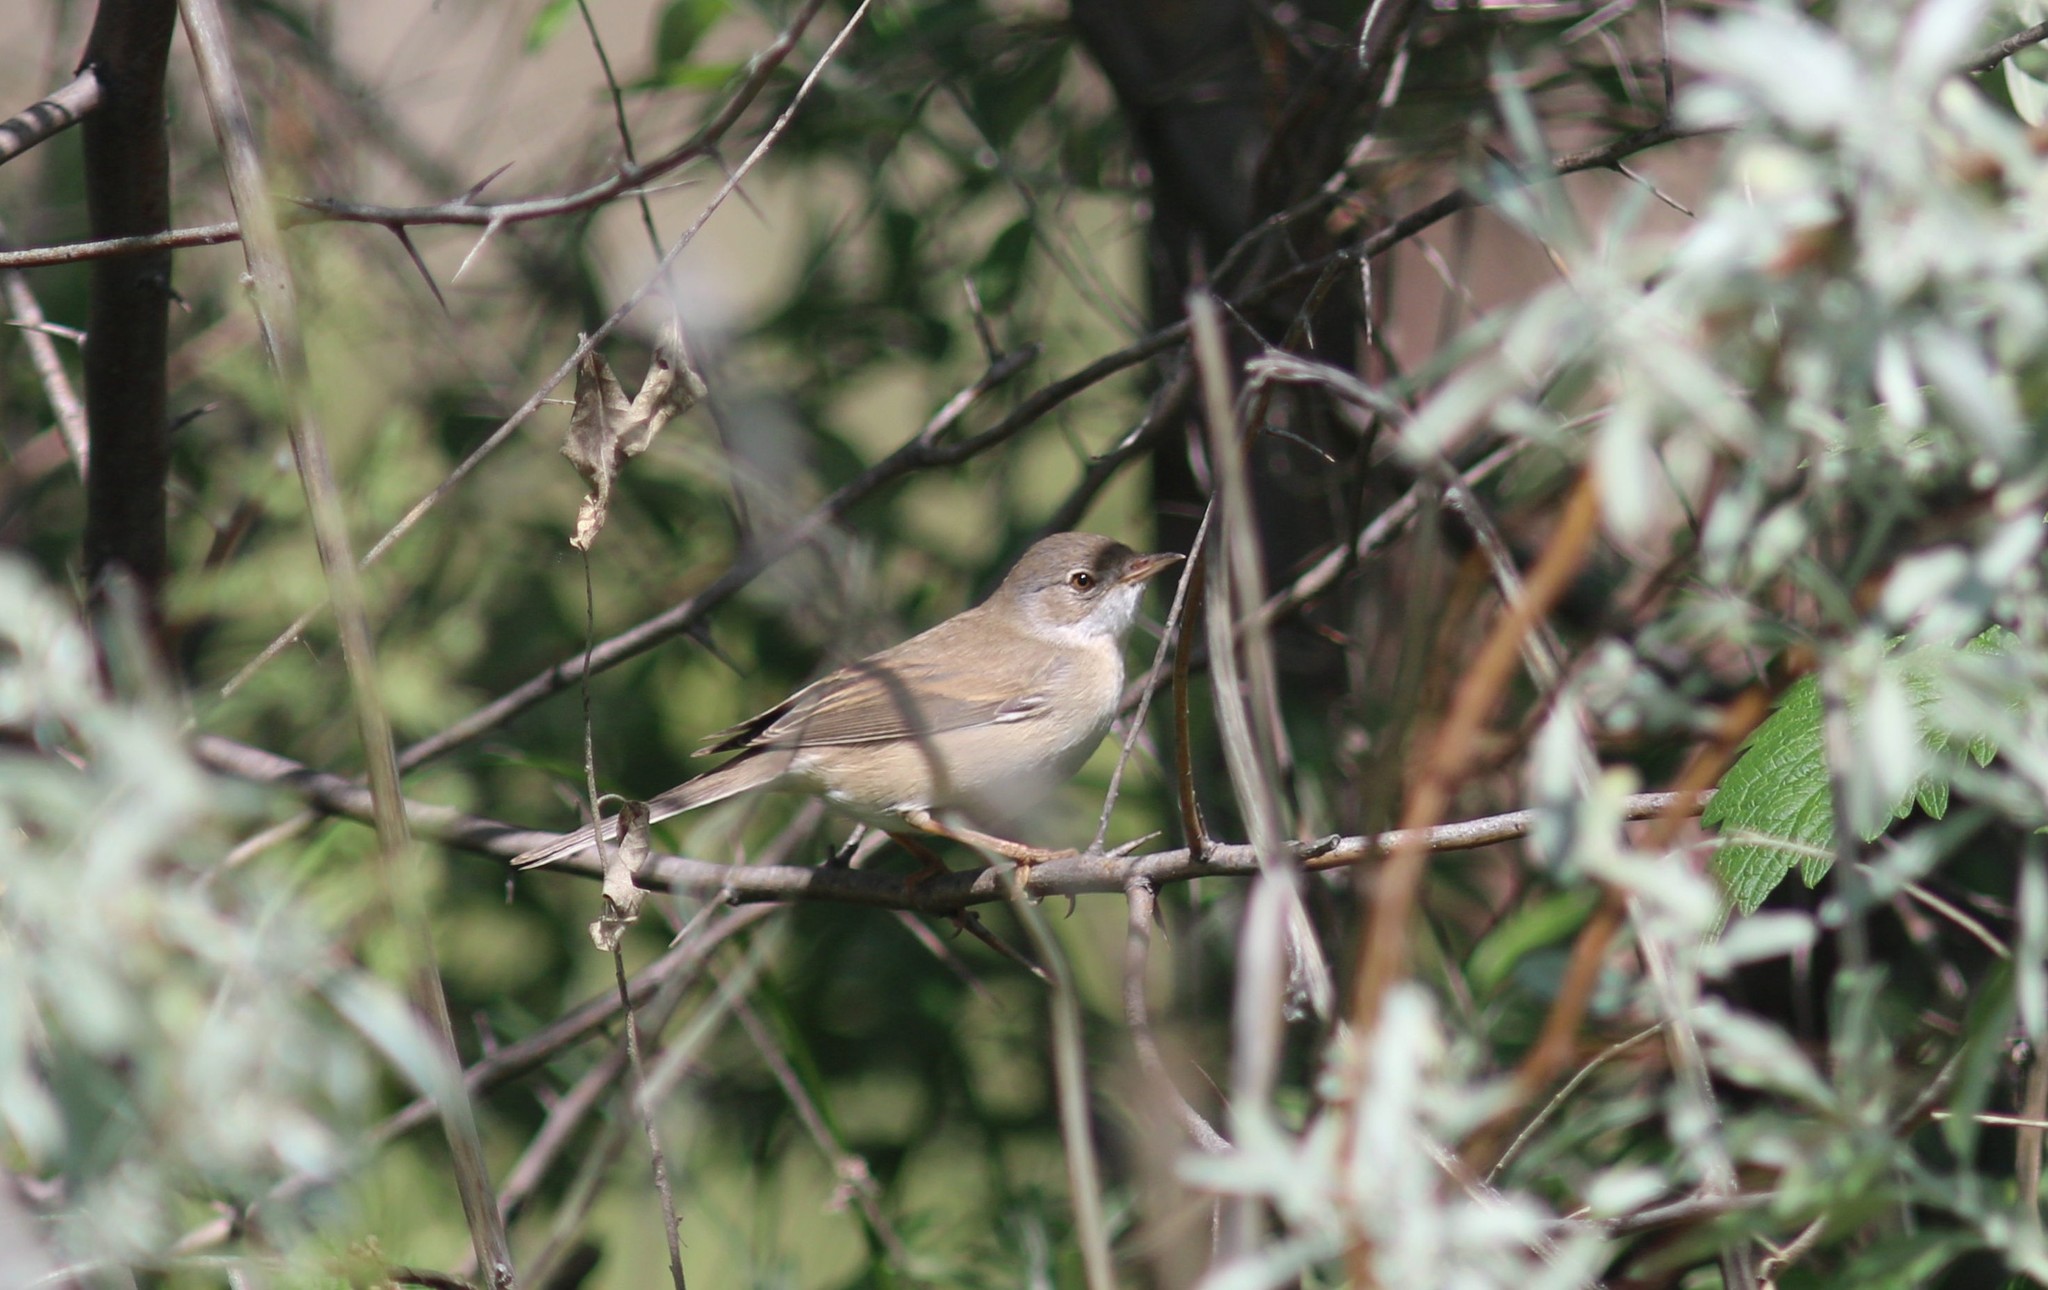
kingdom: Animalia
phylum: Chordata
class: Aves
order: Passeriformes
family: Sylviidae
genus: Sylvia
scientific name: Sylvia communis
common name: Common whitethroat
